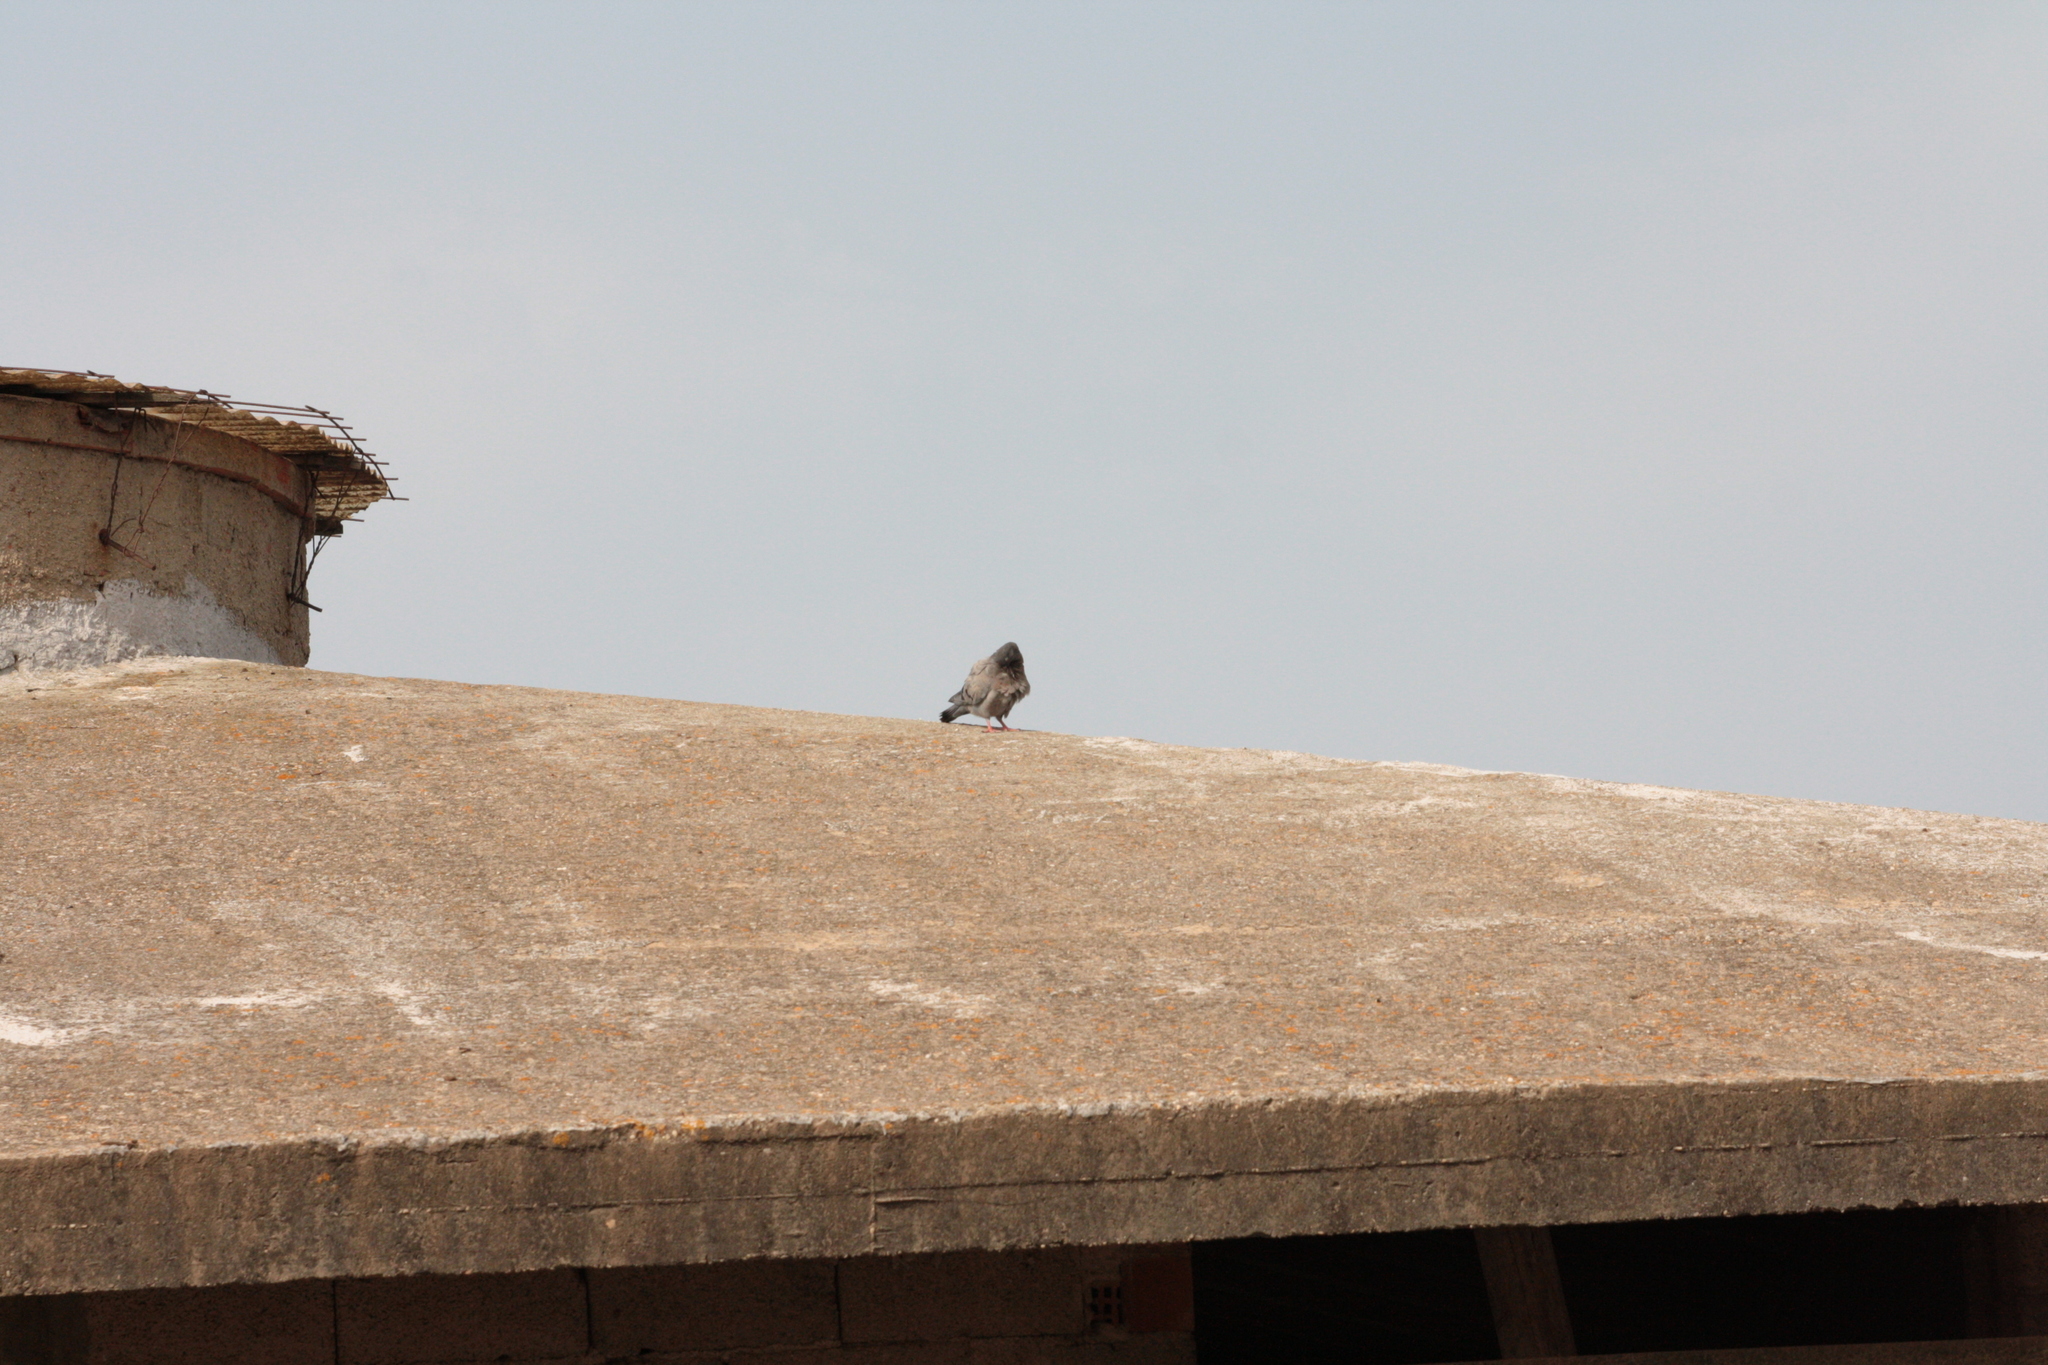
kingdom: Animalia
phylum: Chordata
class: Aves
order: Columbiformes
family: Columbidae
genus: Columba
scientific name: Columba livia
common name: Rock pigeon
